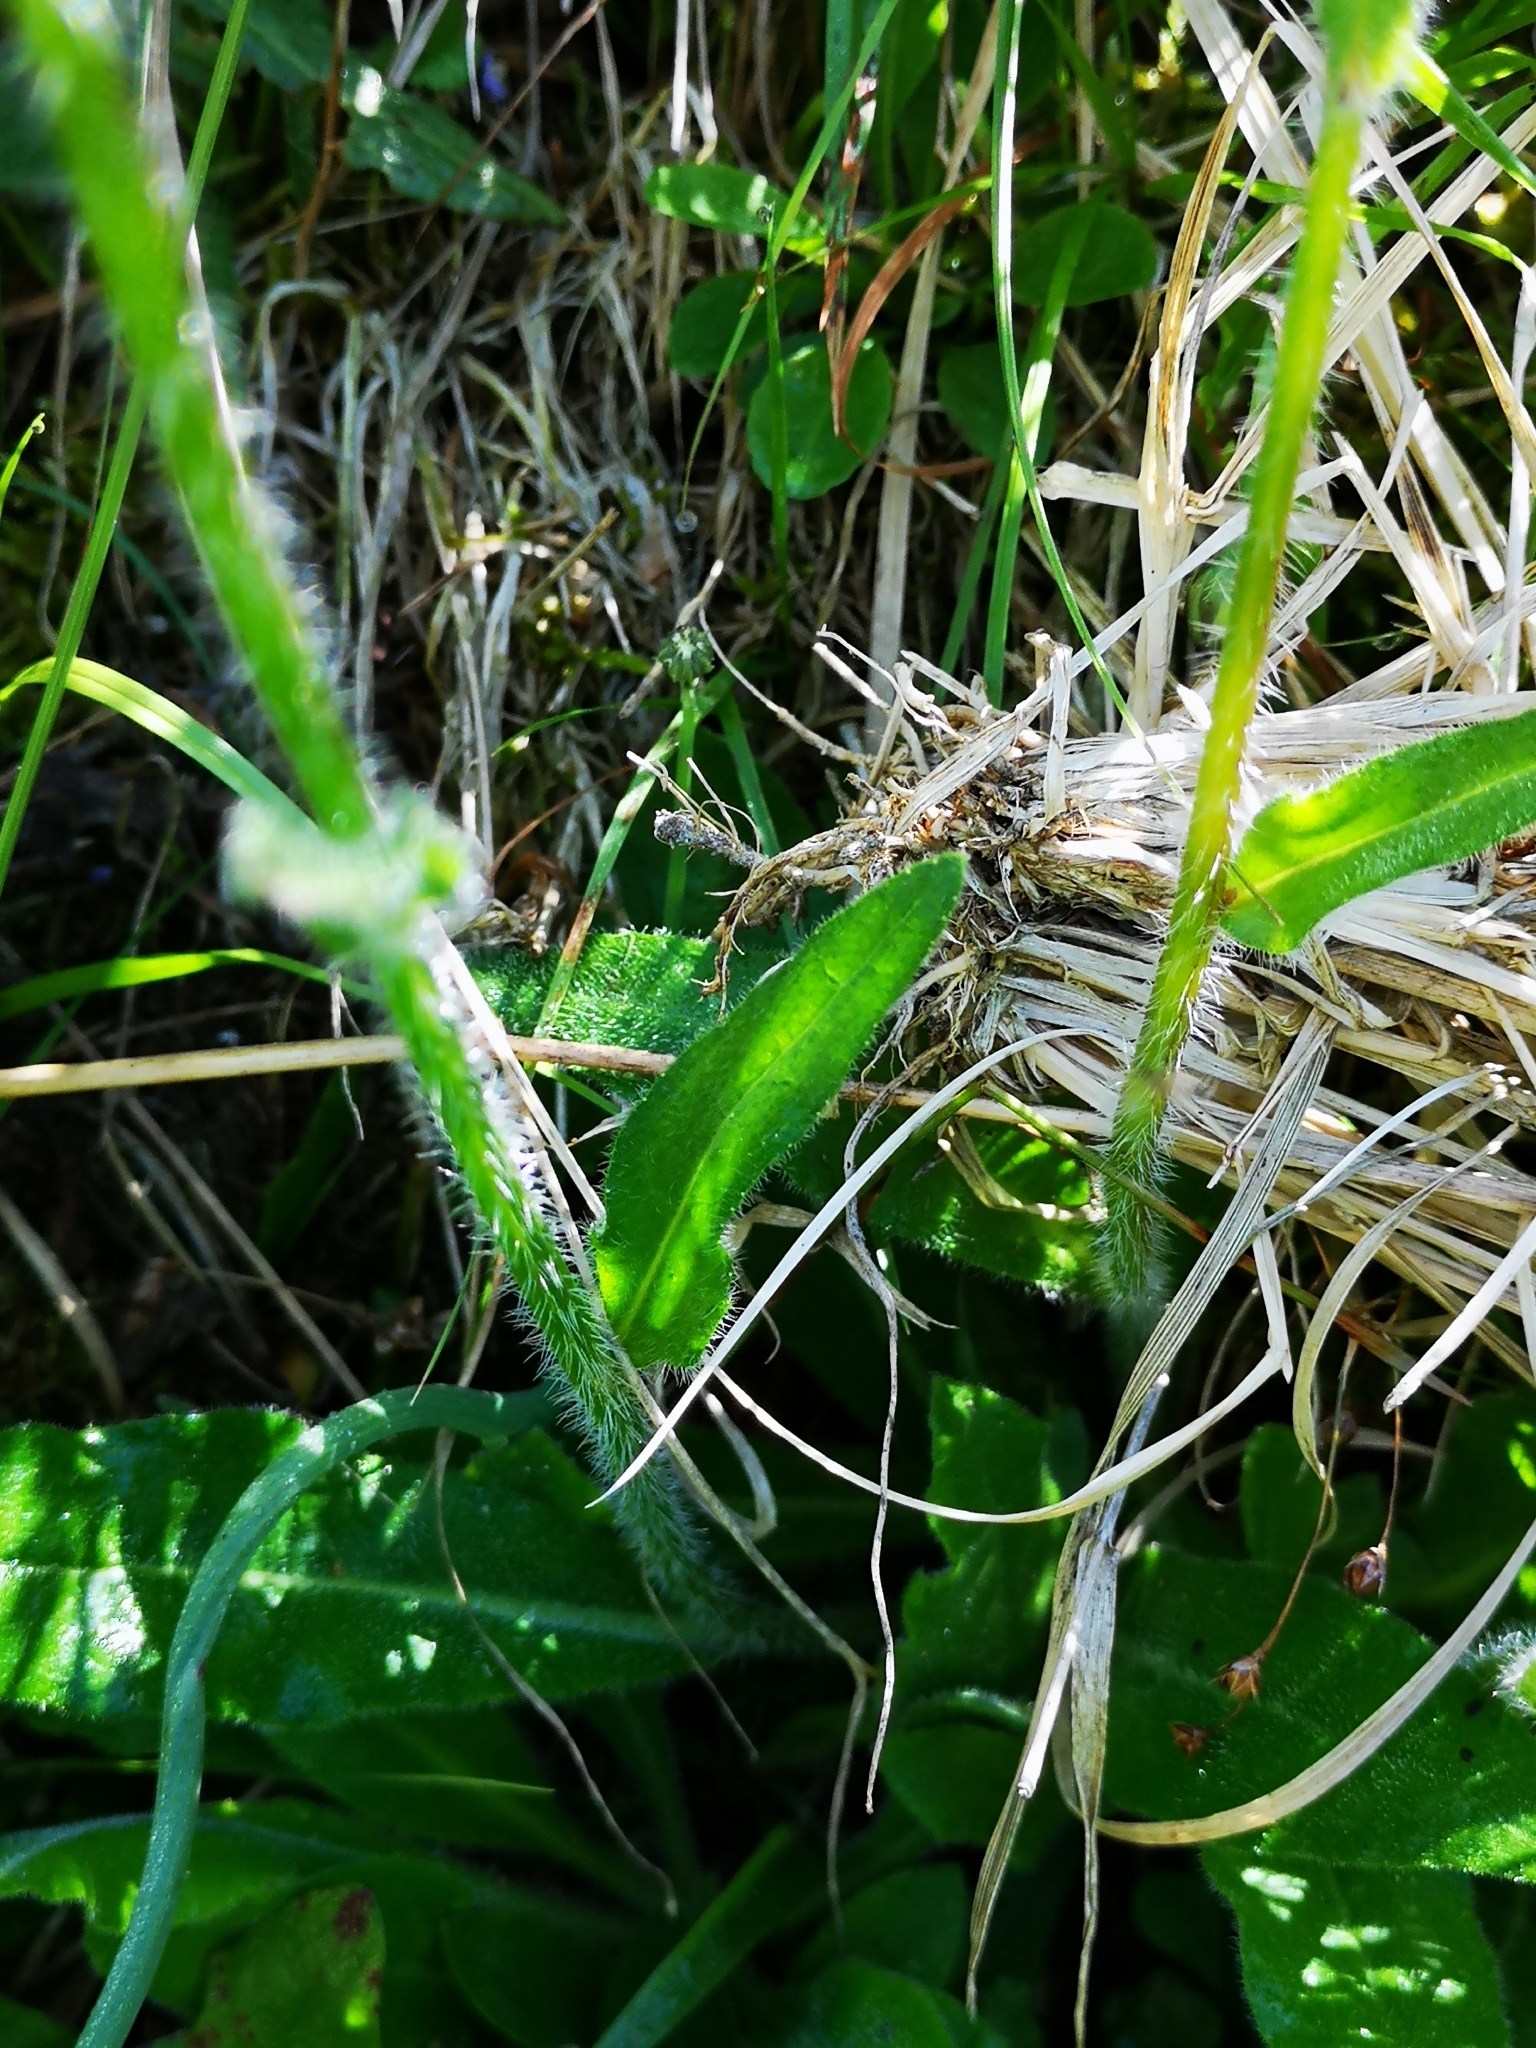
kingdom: Plantae
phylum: Tracheophyta
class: Magnoliopsida
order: Asterales
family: Campanulaceae
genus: Campanula
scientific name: Campanula barbata
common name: Bearded bellflower
